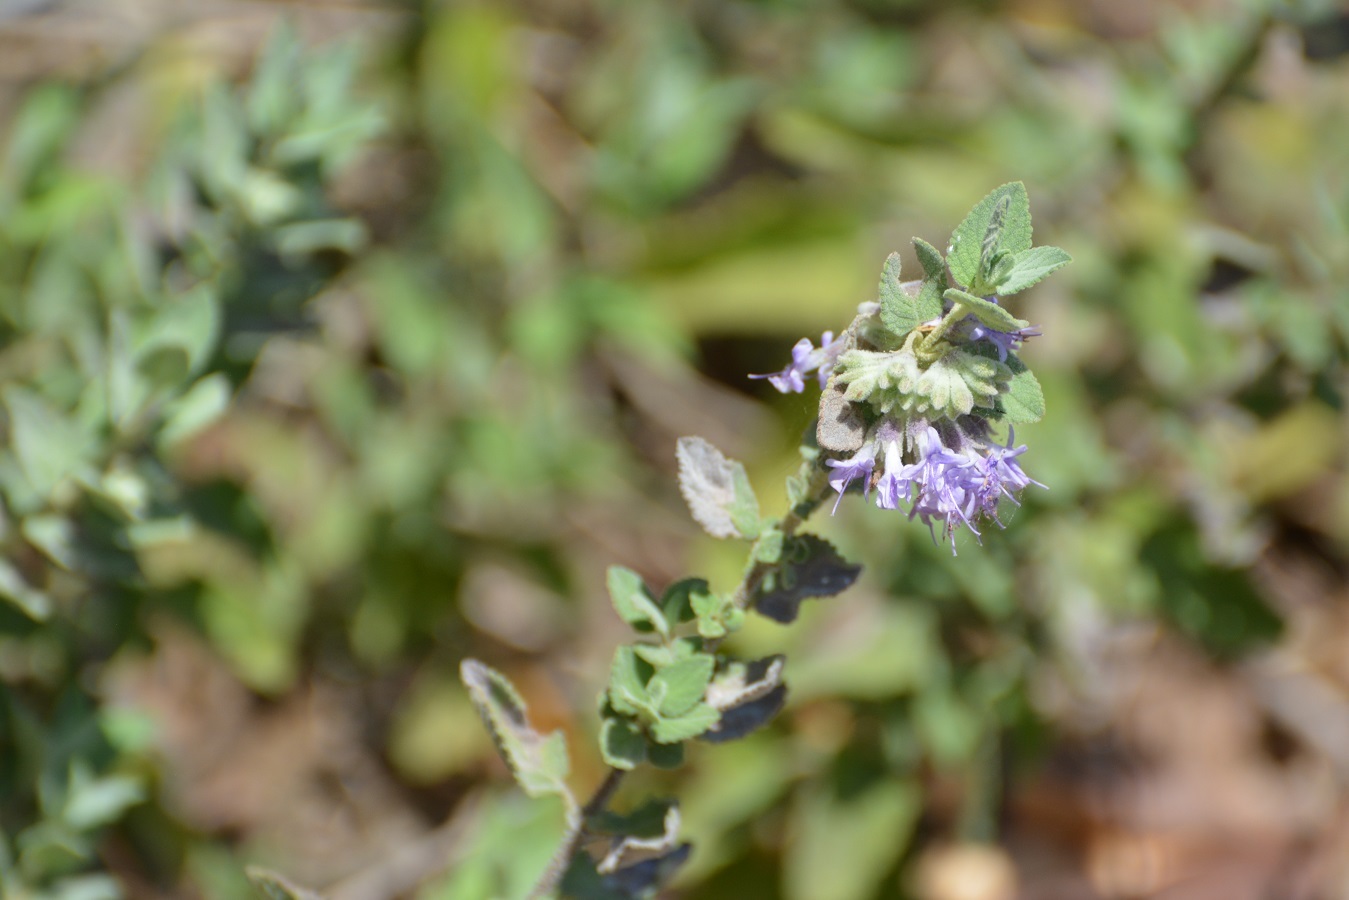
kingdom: Plantae
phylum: Tracheophyta
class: Magnoliopsida
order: Lamiales
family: Lamiaceae
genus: Condea
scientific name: Condea tomentosa
